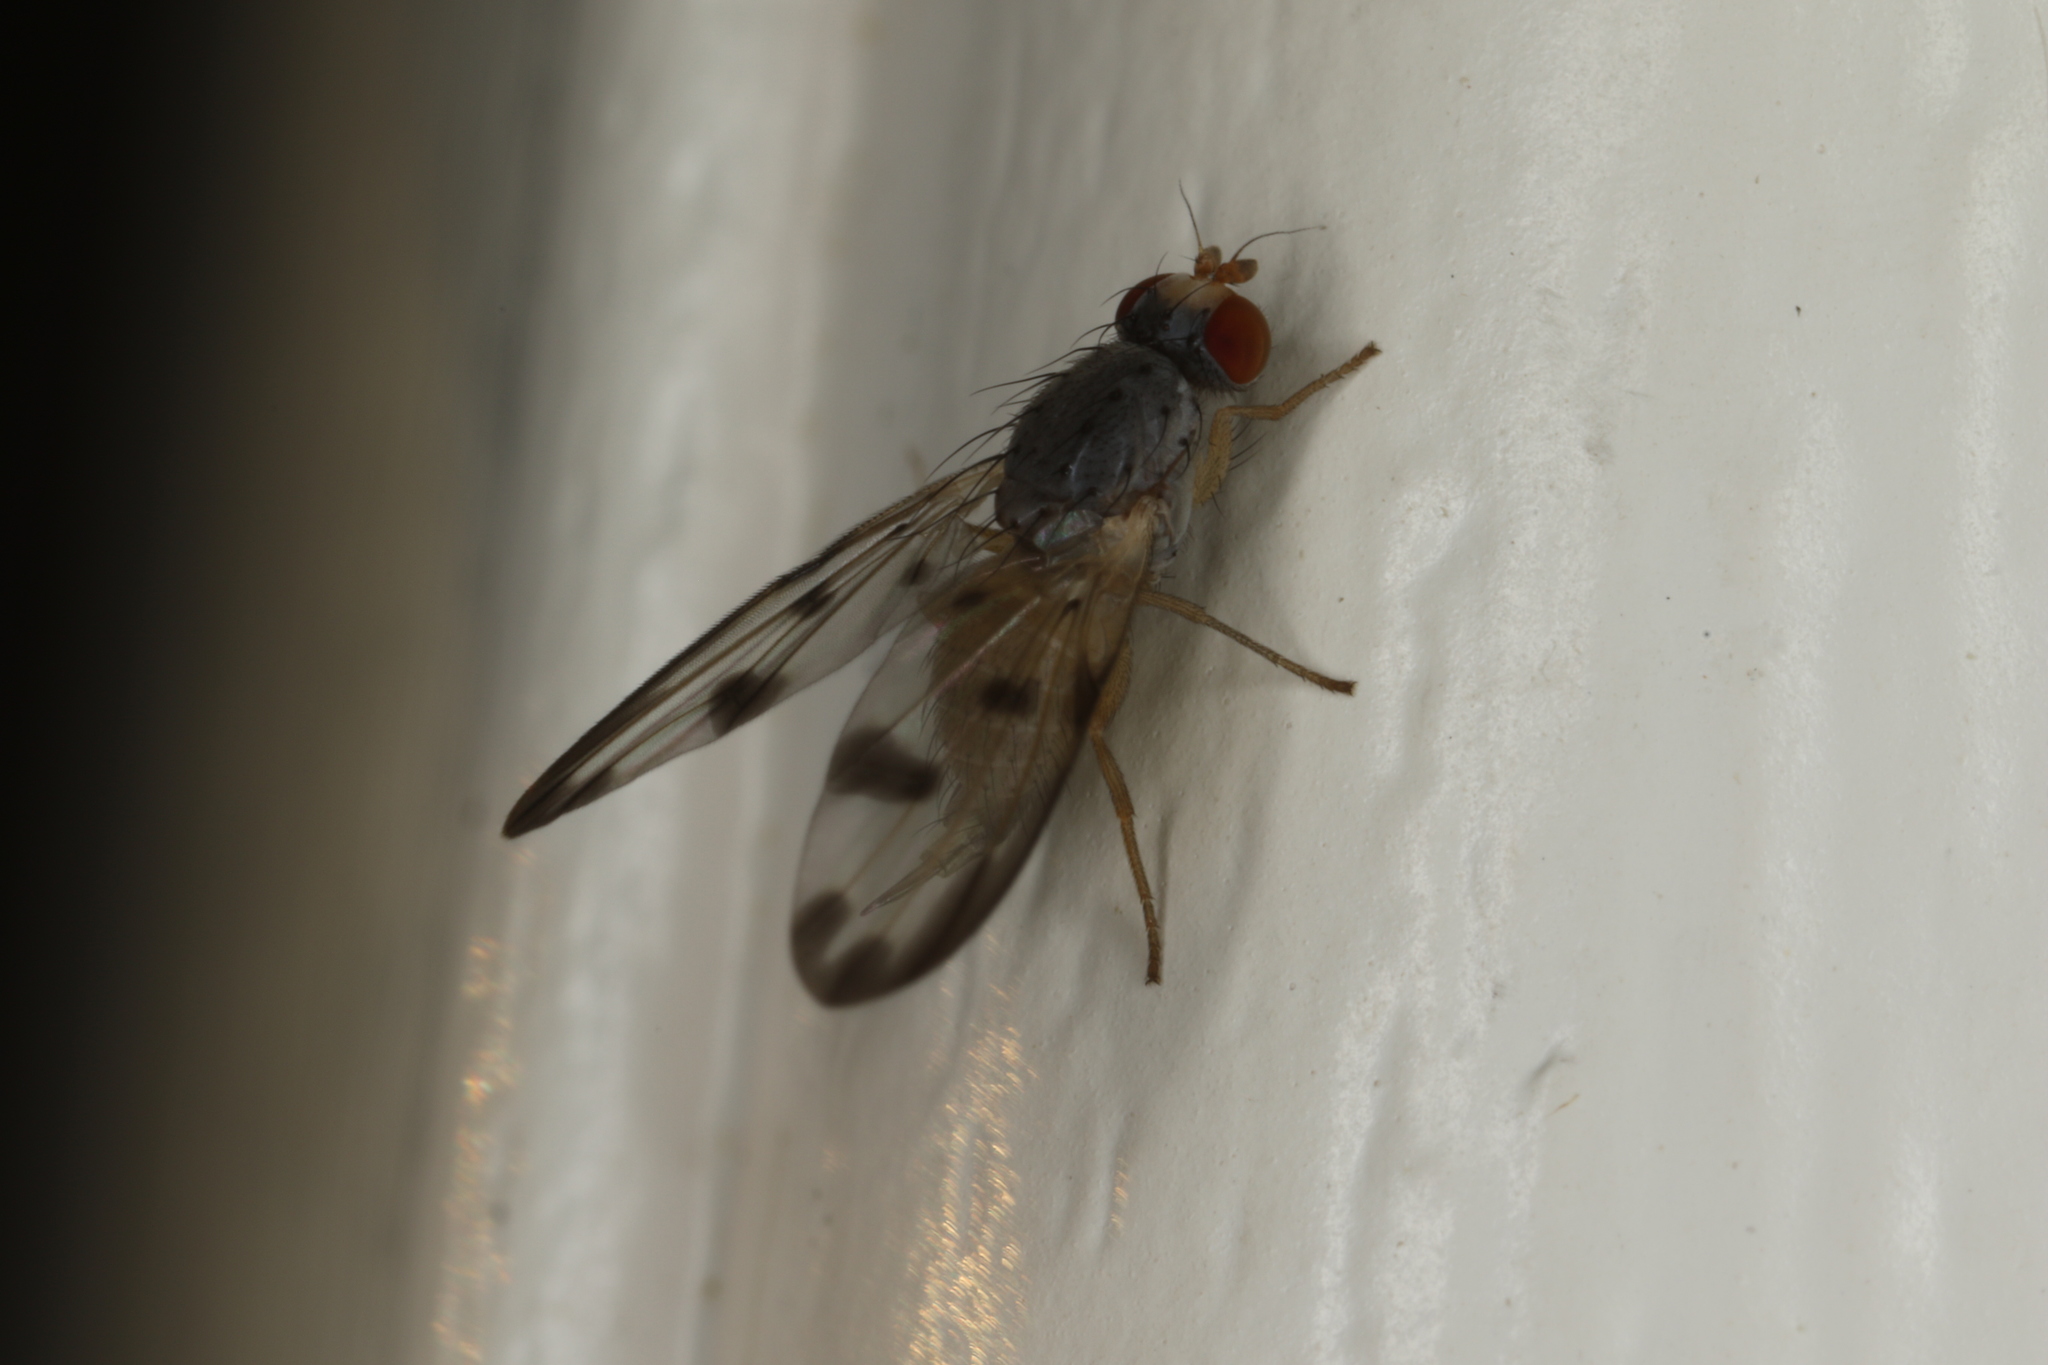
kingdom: Animalia
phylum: Arthropoda
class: Insecta
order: Diptera
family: Pallopteridae
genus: Palloptera
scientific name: Palloptera umbellatarum
